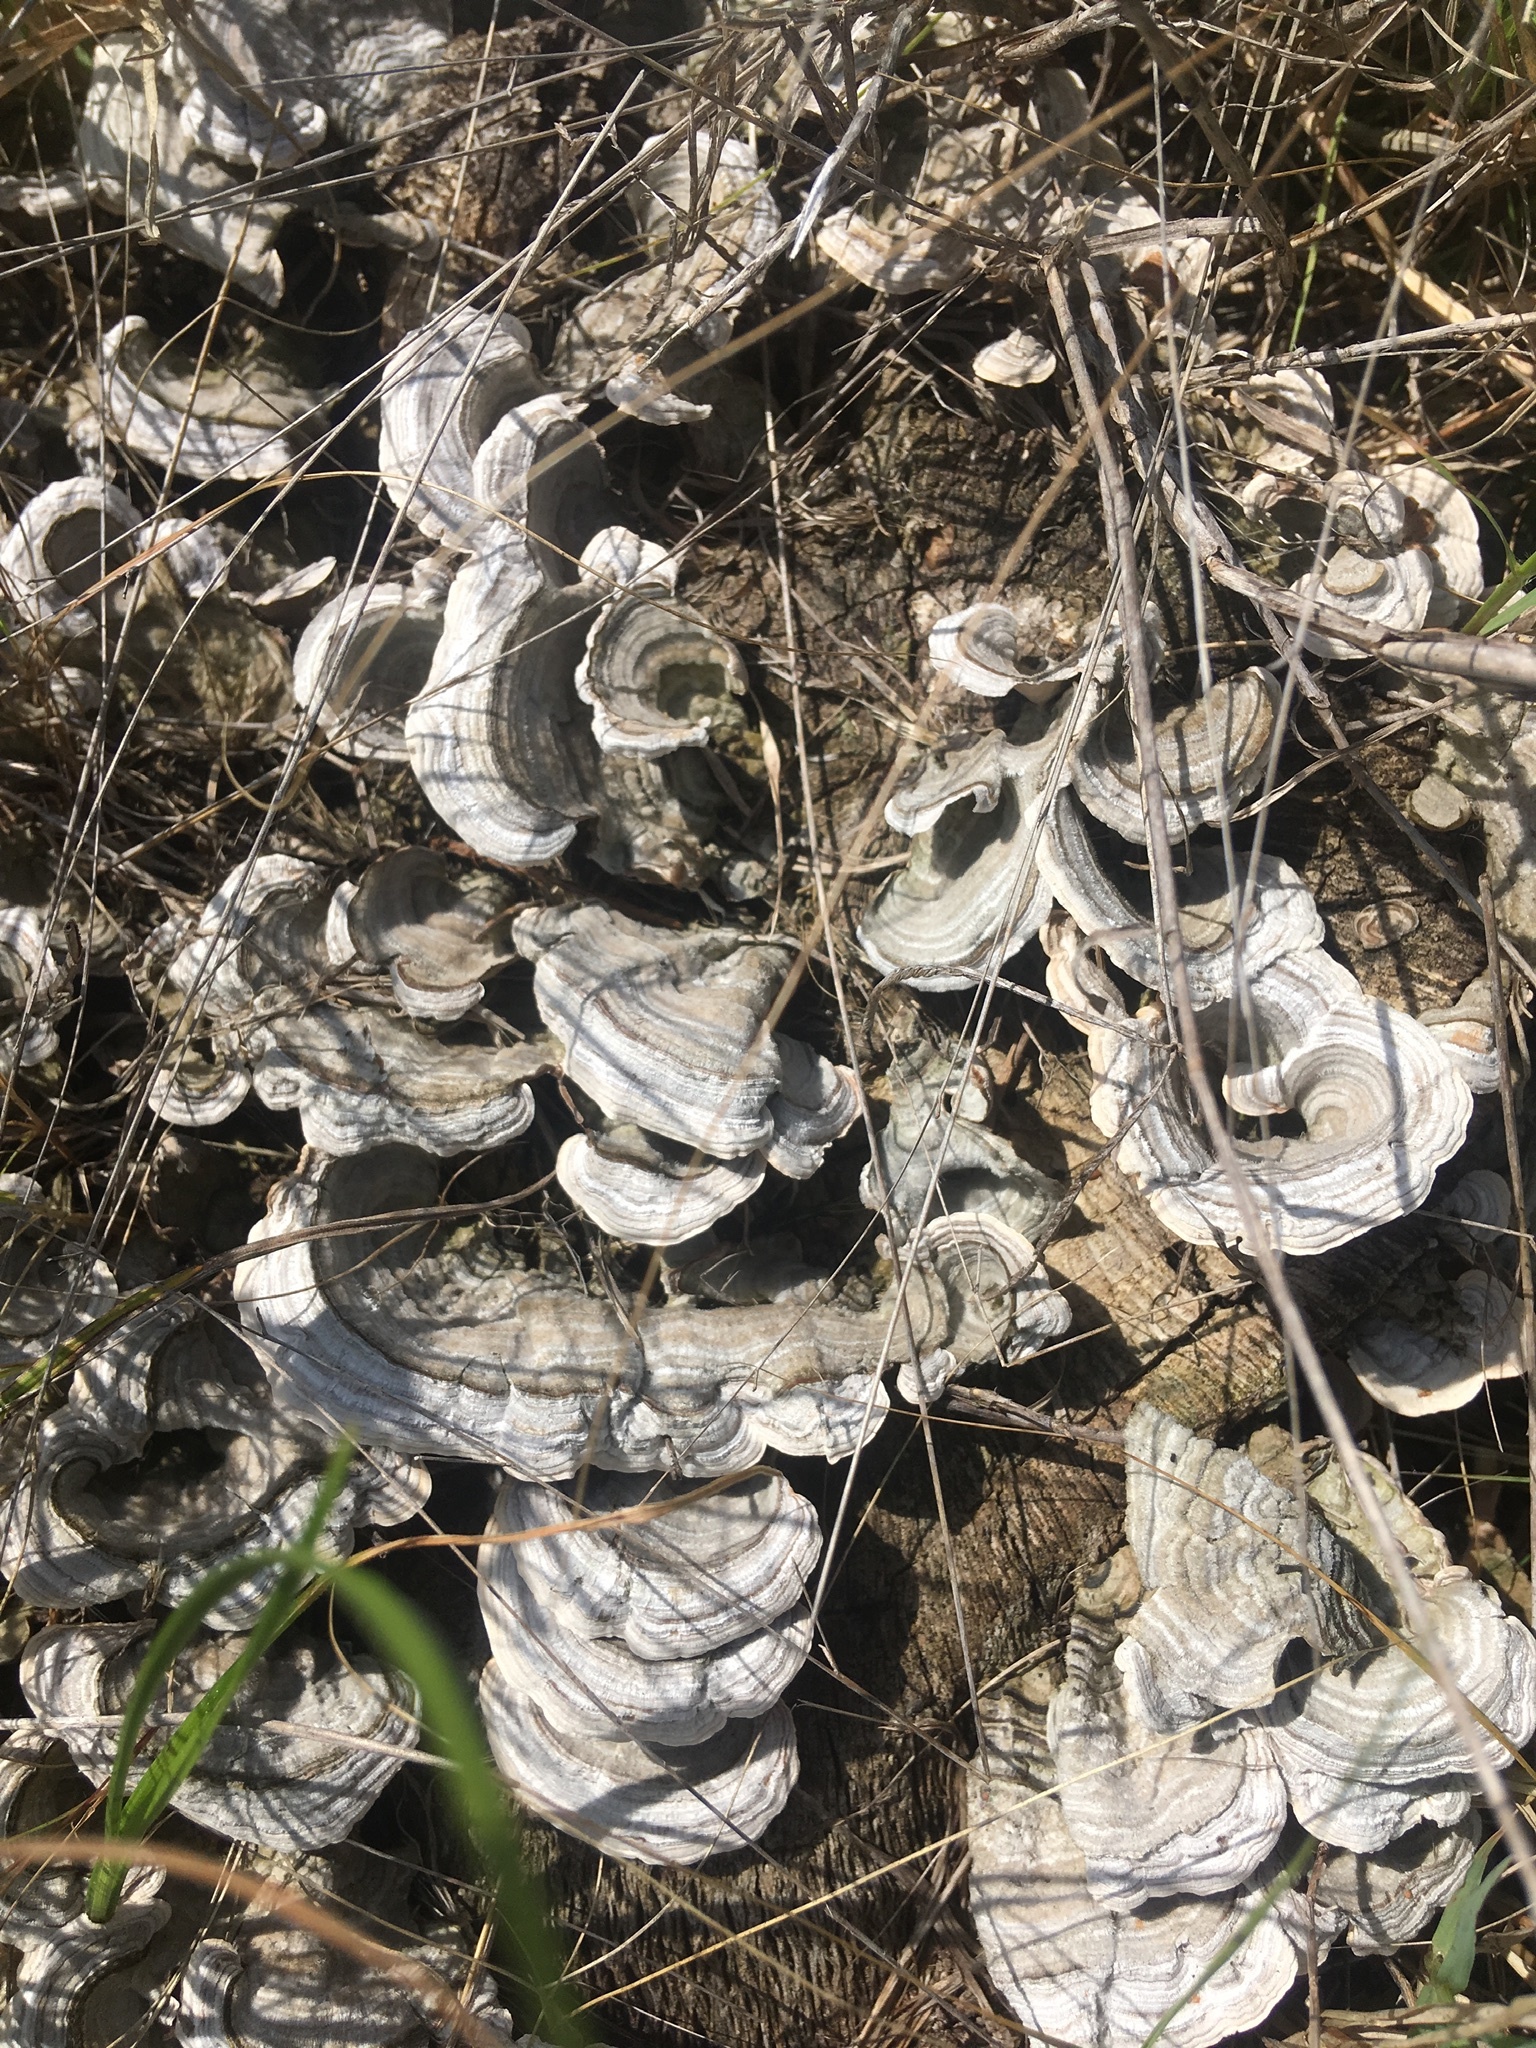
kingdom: Fungi
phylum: Basidiomycota
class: Agaricomycetes
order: Russulales
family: Stereaceae
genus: Stereum
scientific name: Stereum ostrea
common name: False turkeytail
